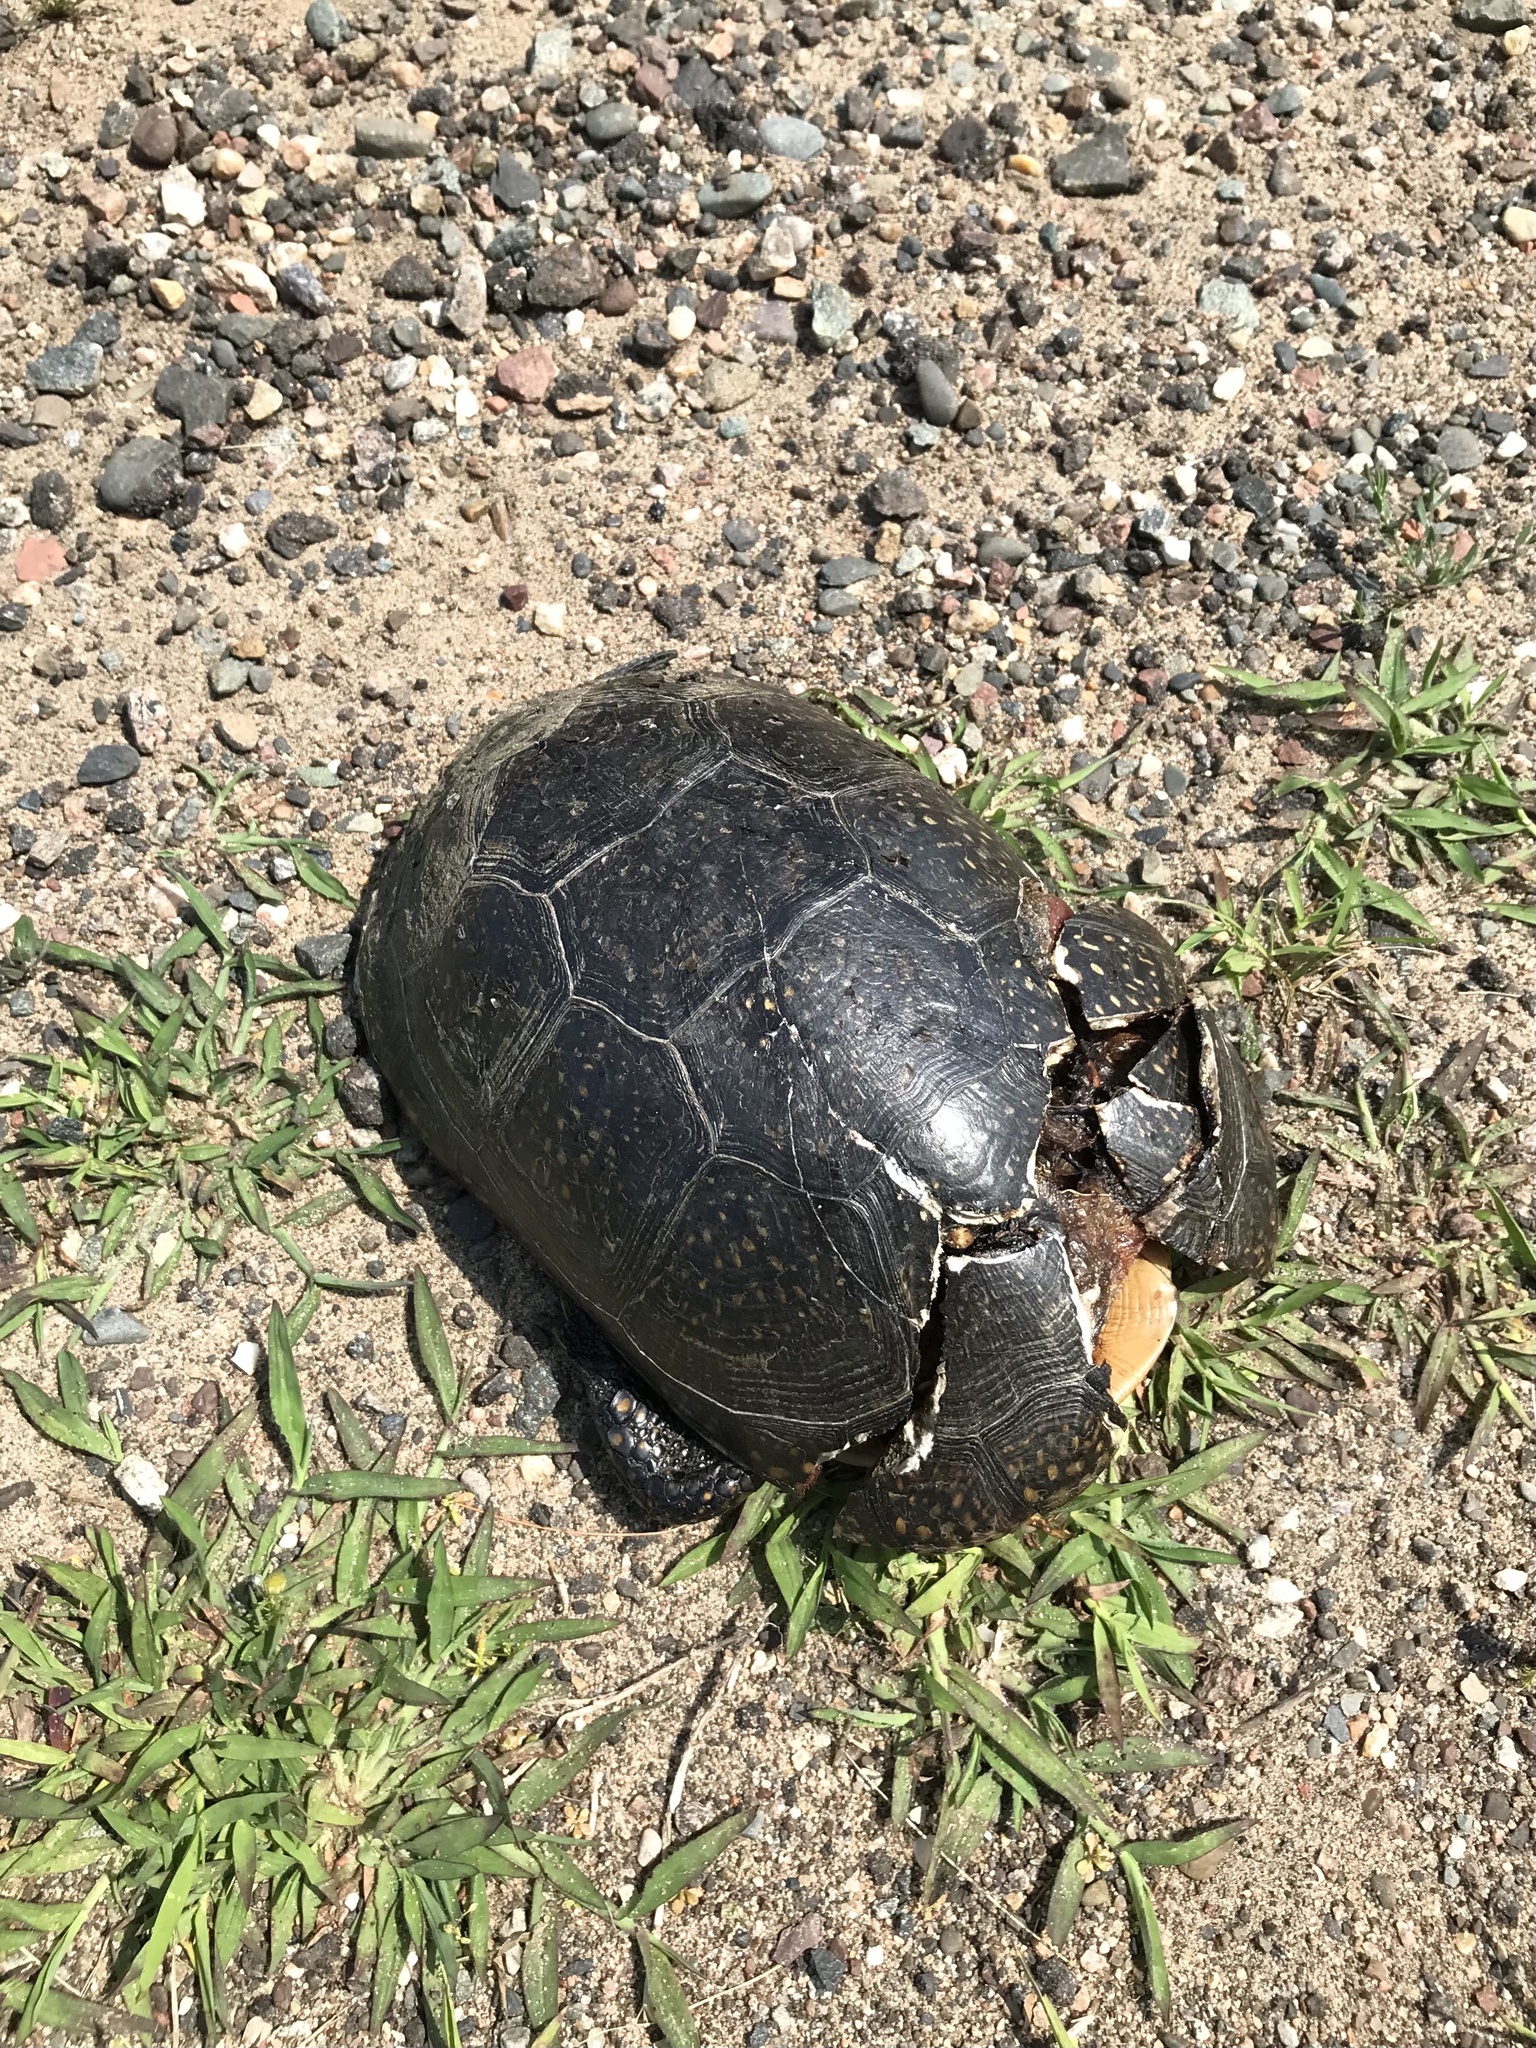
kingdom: Animalia
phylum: Chordata
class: Testudines
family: Emydidae
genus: Emys
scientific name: Emys blandingii
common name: Blanding's turtle
